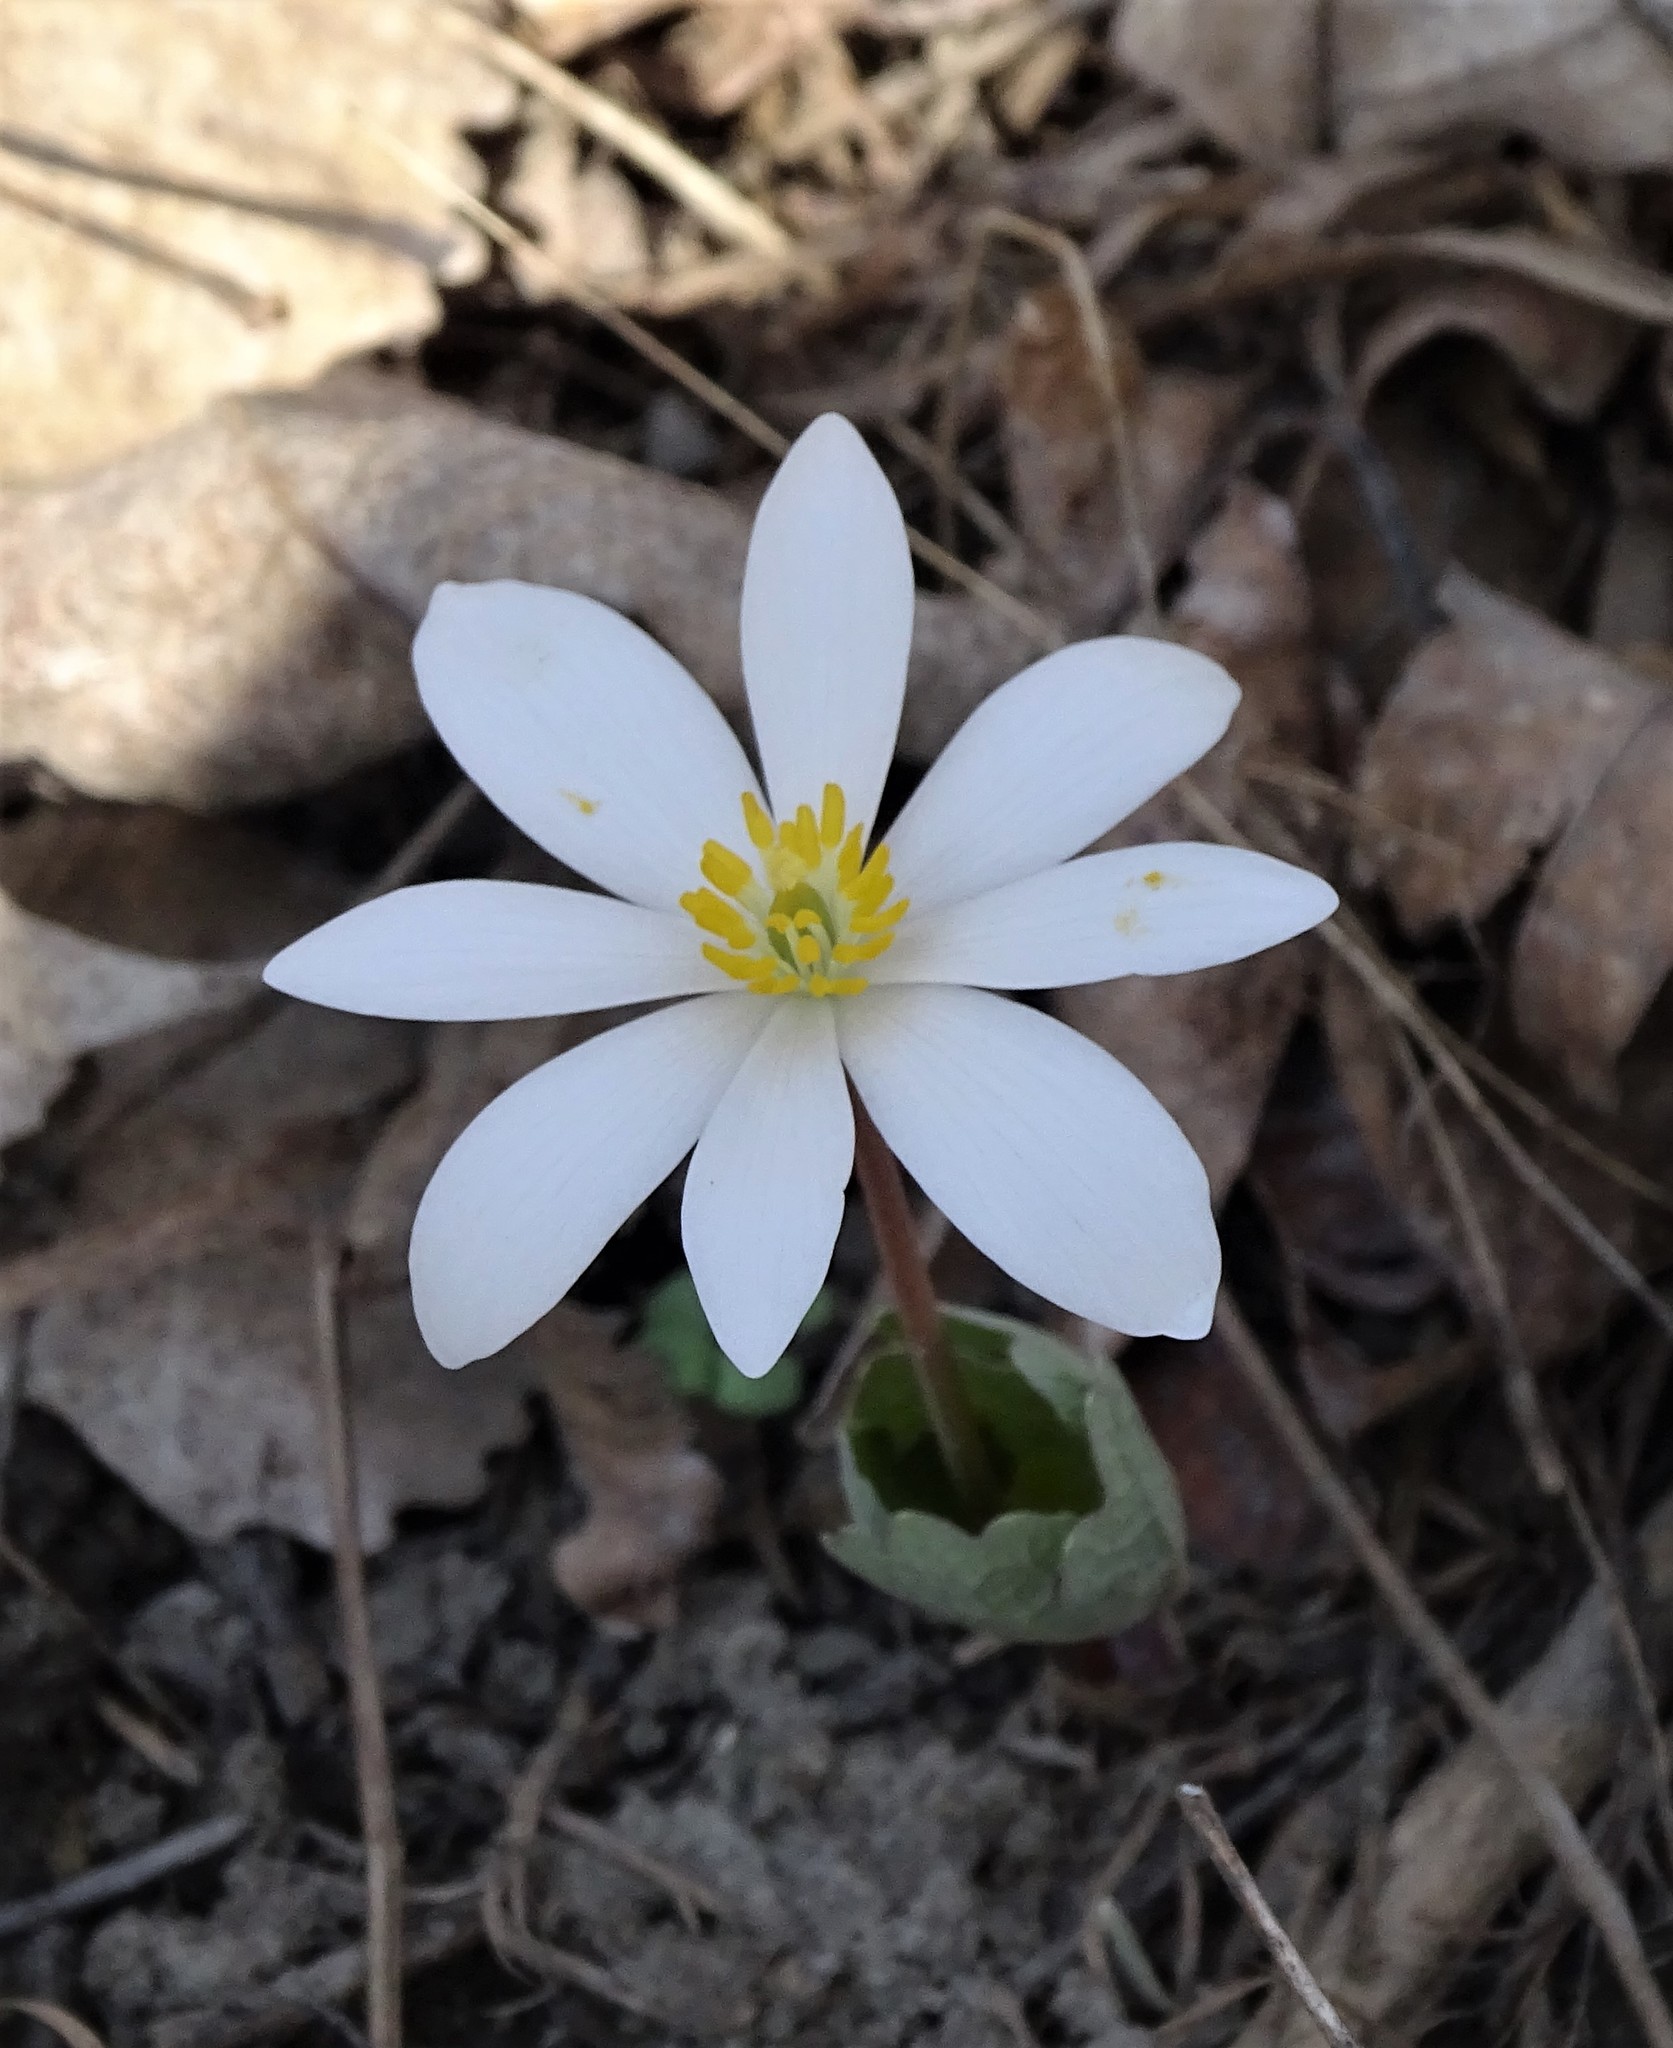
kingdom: Plantae
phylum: Tracheophyta
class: Magnoliopsida
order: Ranunculales
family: Papaveraceae
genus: Sanguinaria
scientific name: Sanguinaria canadensis
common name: Bloodroot
